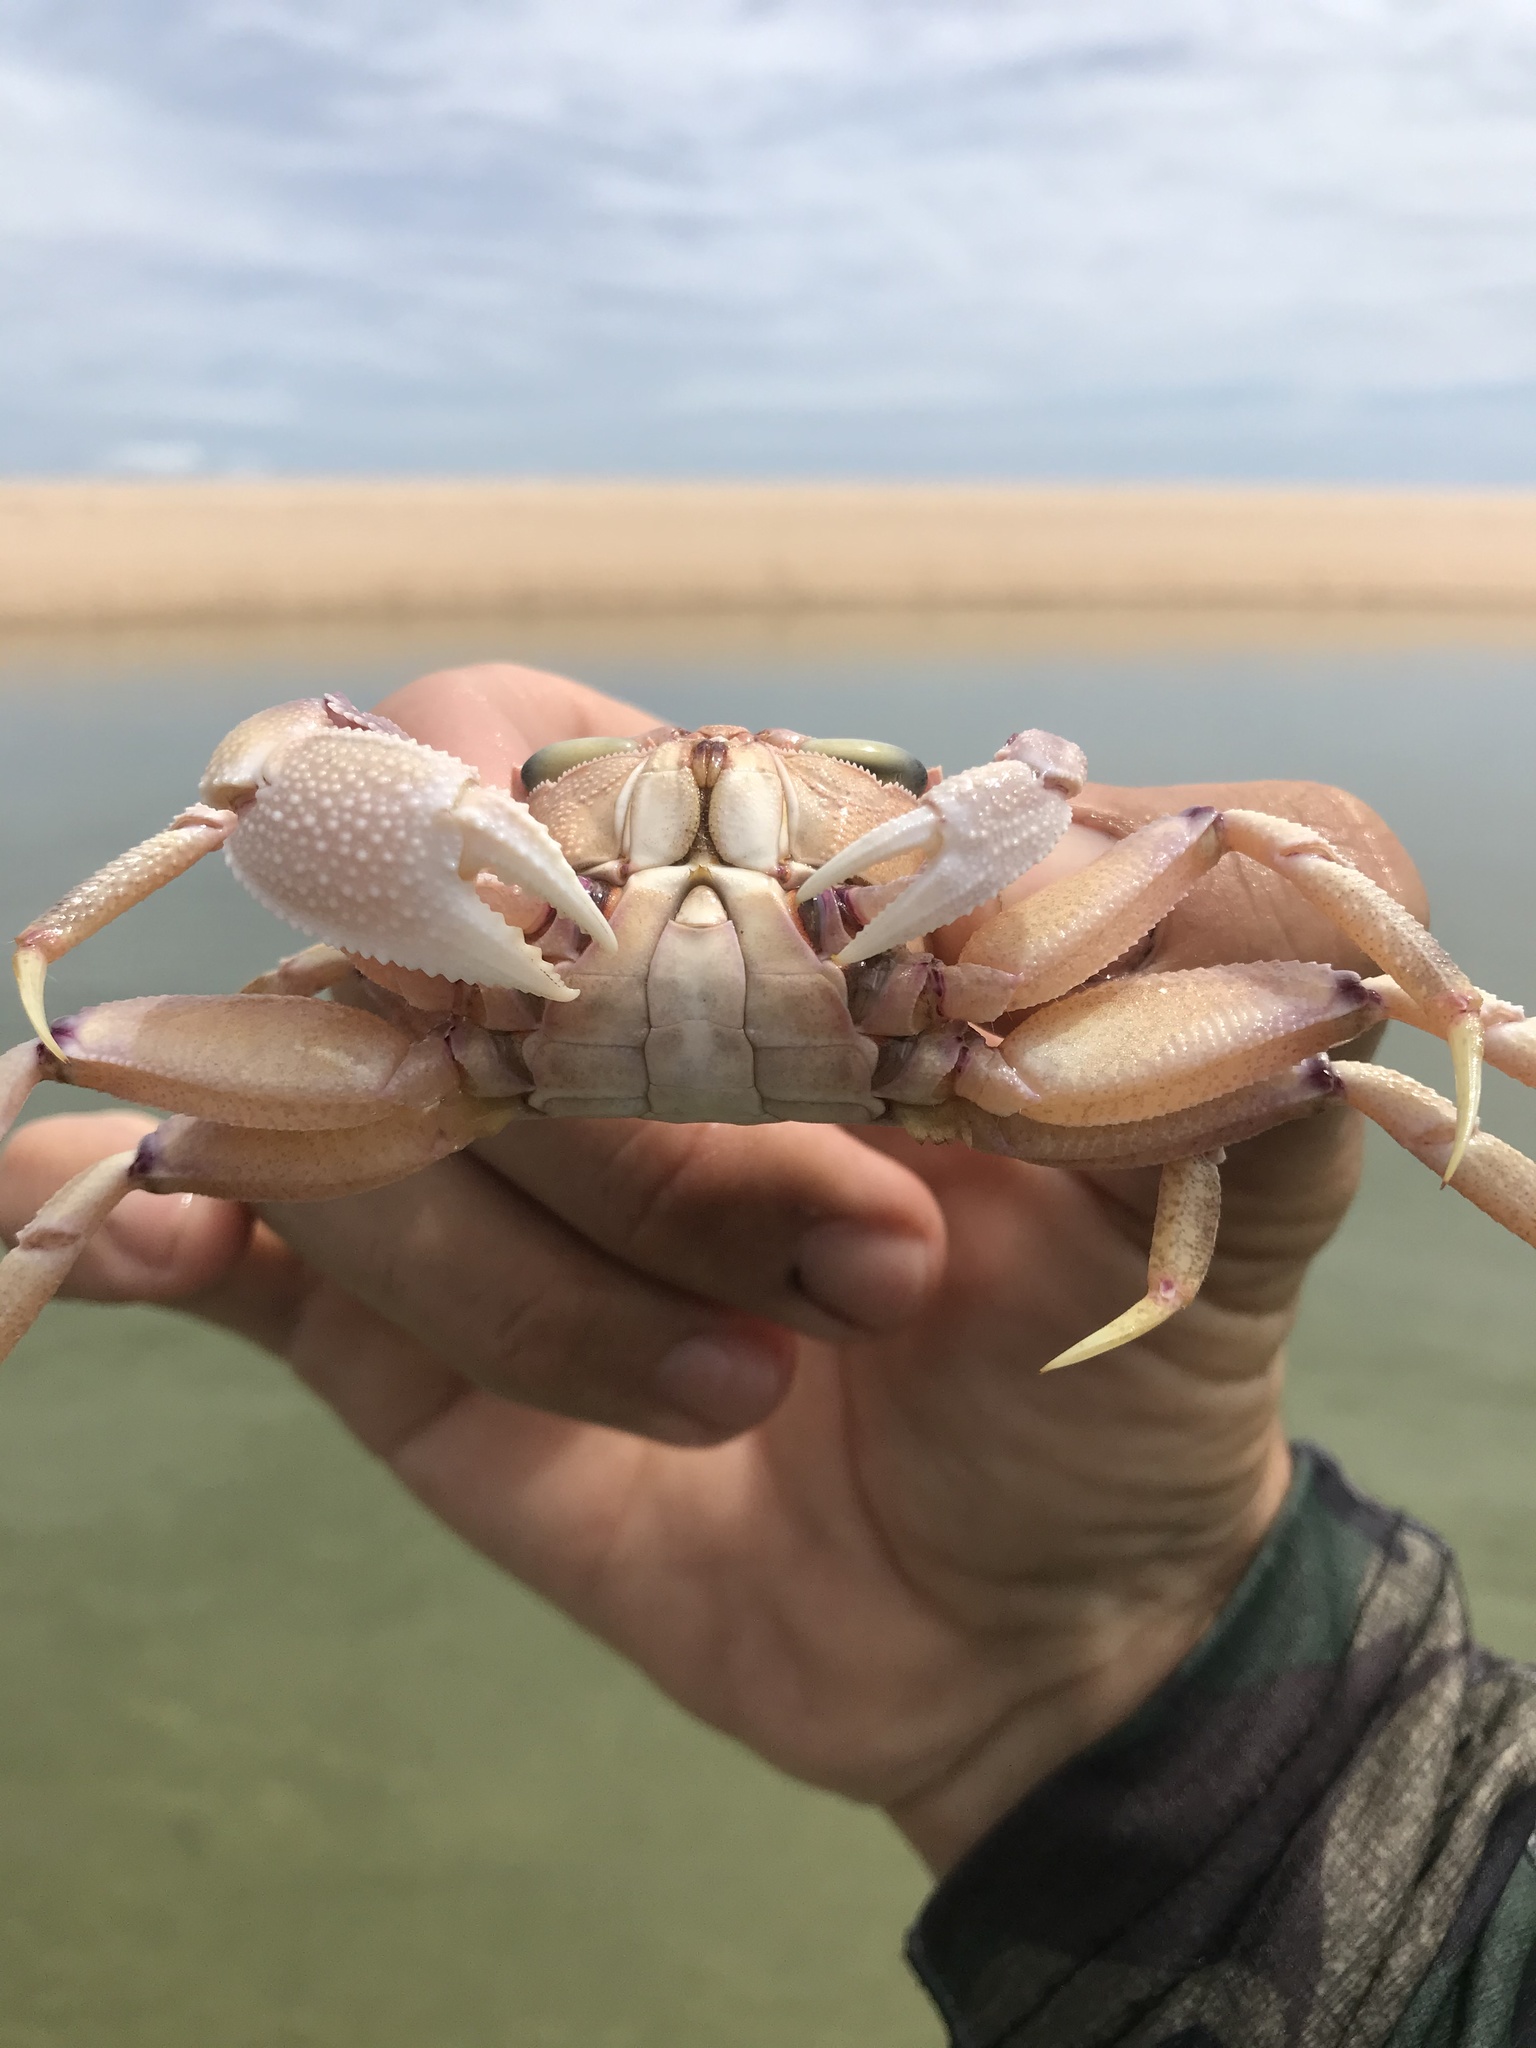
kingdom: Animalia
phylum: Arthropoda
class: Malacostraca
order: Decapoda
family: Ocypodidae
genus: Ocypode
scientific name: Ocypode ryderi
